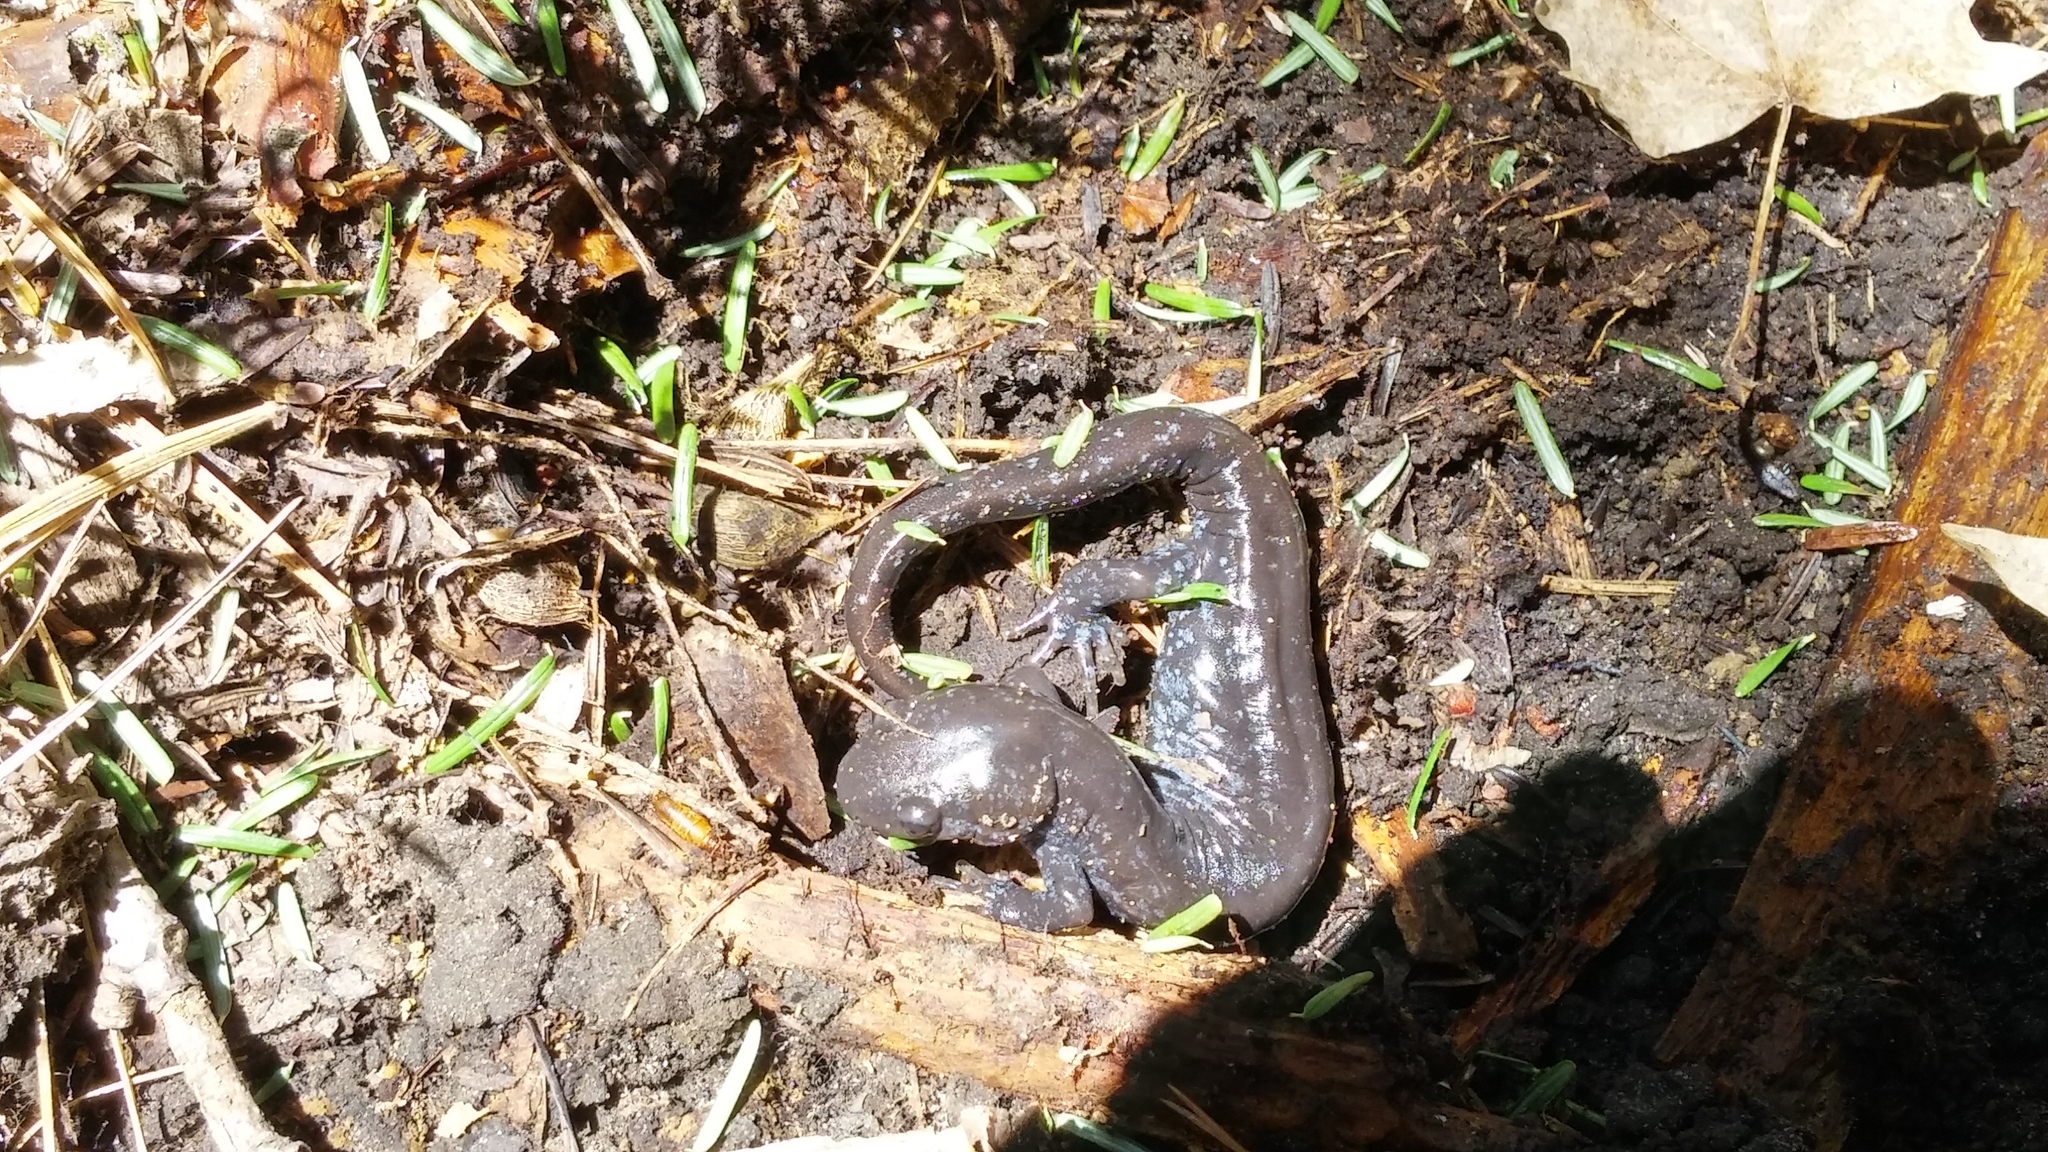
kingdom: Animalia
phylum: Chordata
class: Amphibia
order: Caudata
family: Ambystomatidae
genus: Ambystoma
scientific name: Ambystoma laterale
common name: Blue-spotted salamander
